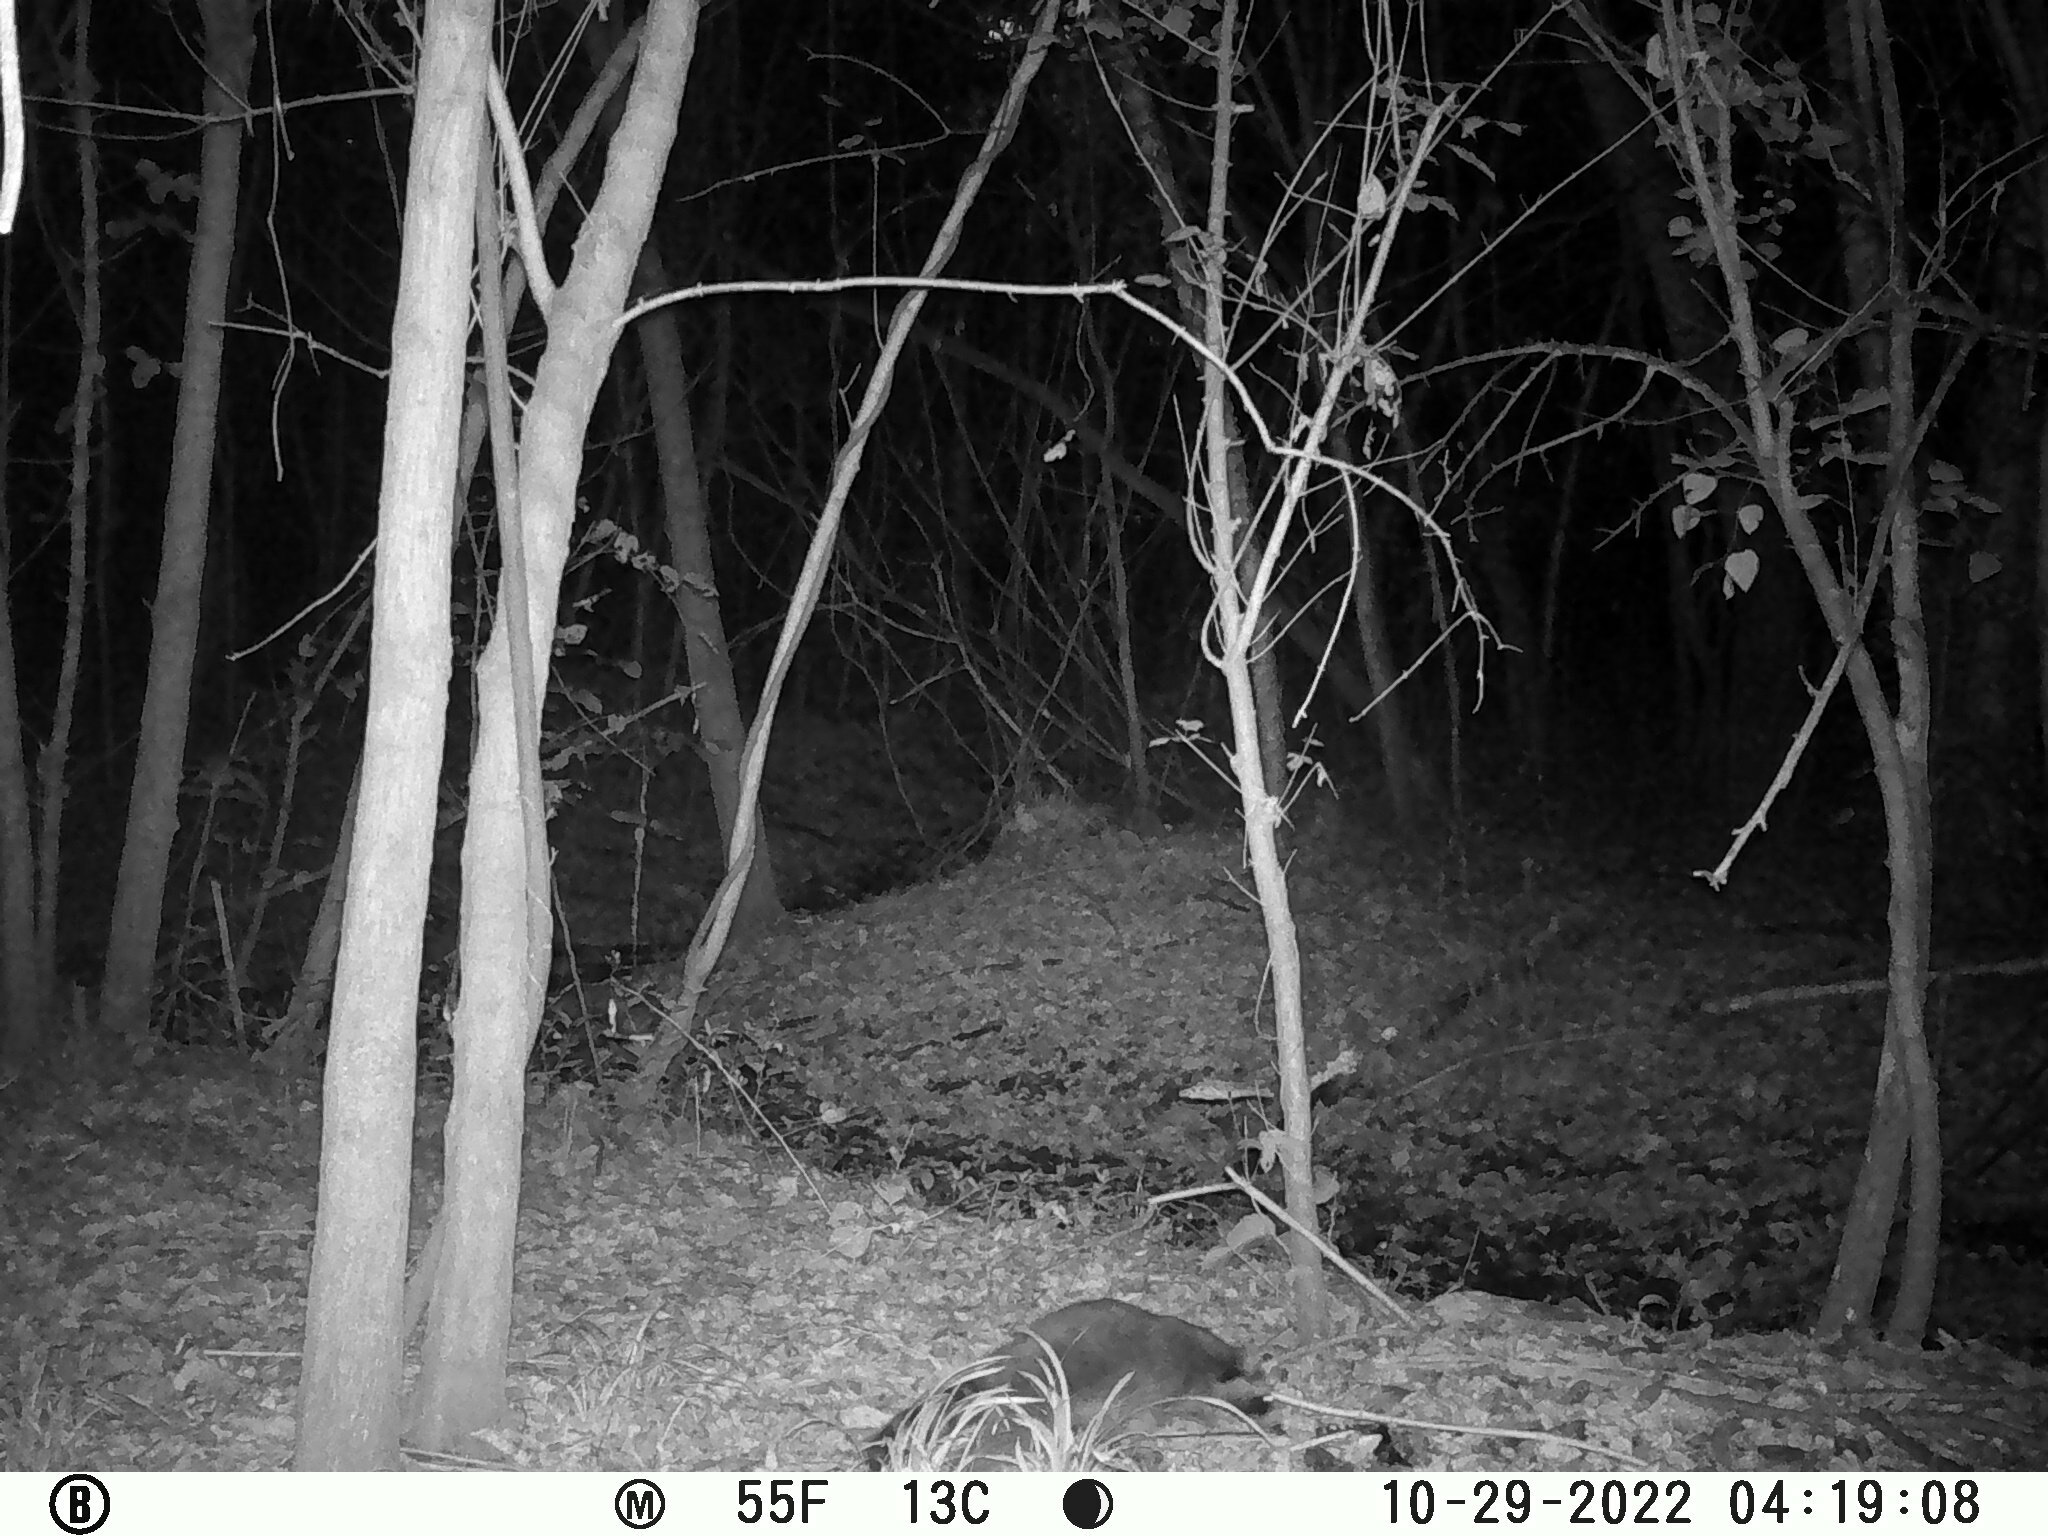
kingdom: Animalia
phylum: Chordata
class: Mammalia
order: Carnivora
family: Procyonidae
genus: Procyon
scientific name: Procyon lotor
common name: Raccoon
